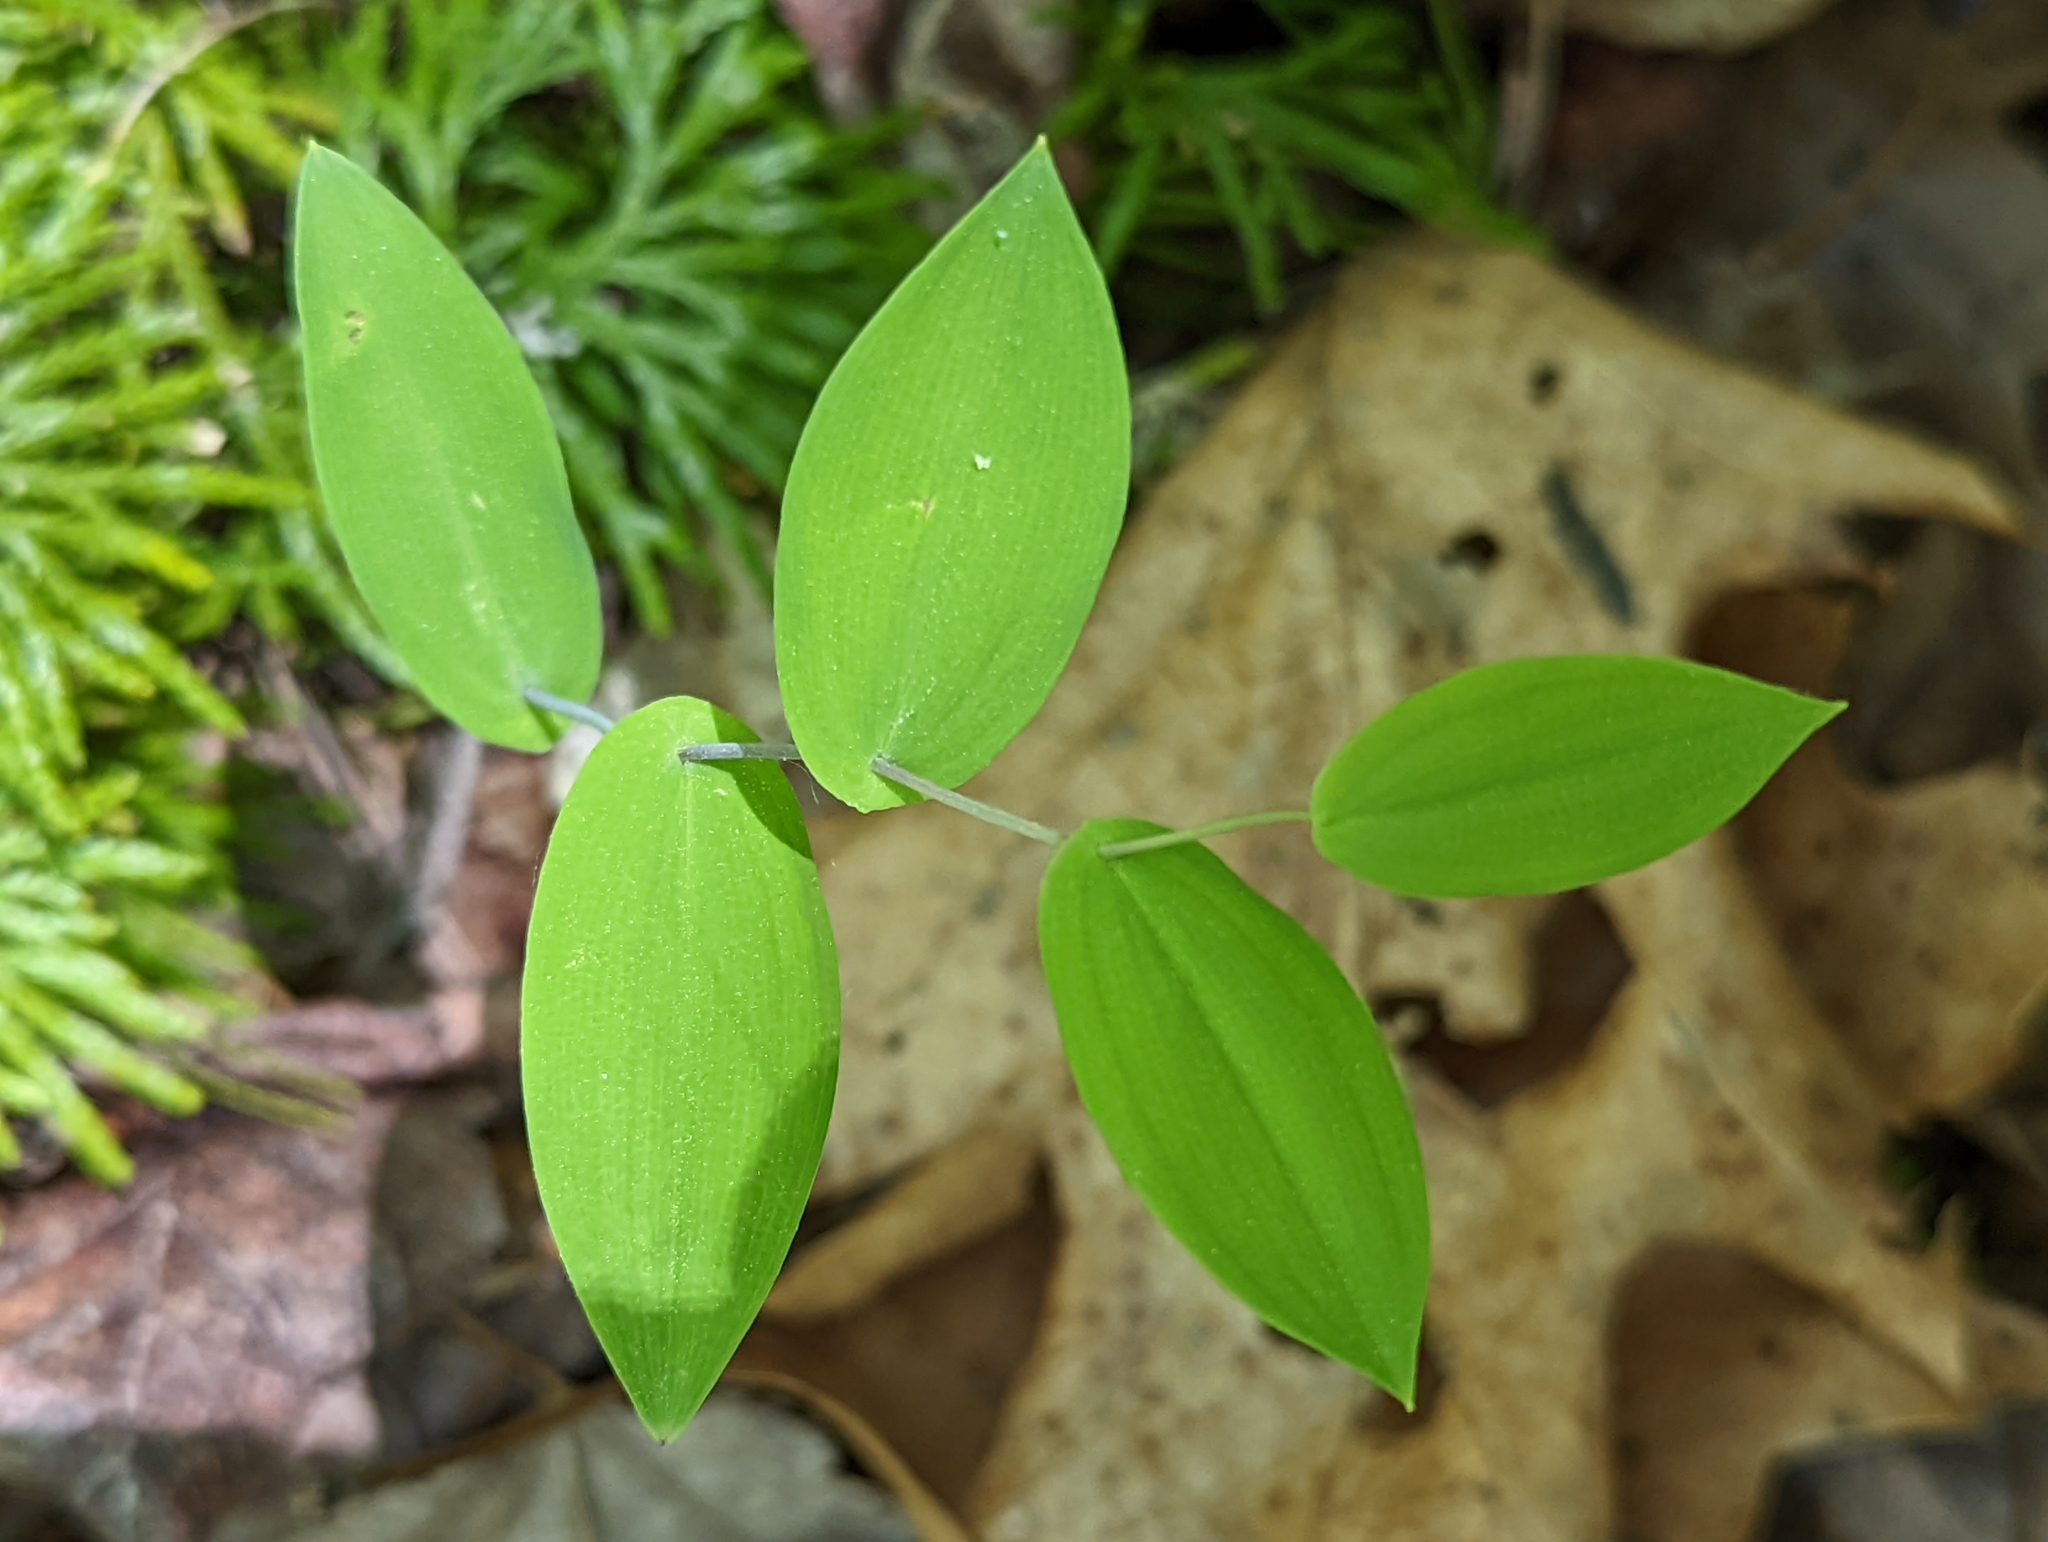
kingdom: Plantae
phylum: Tracheophyta
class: Liliopsida
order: Liliales
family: Colchicaceae
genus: Uvularia
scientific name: Uvularia perfoliata
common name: Perfoliate bellwort
